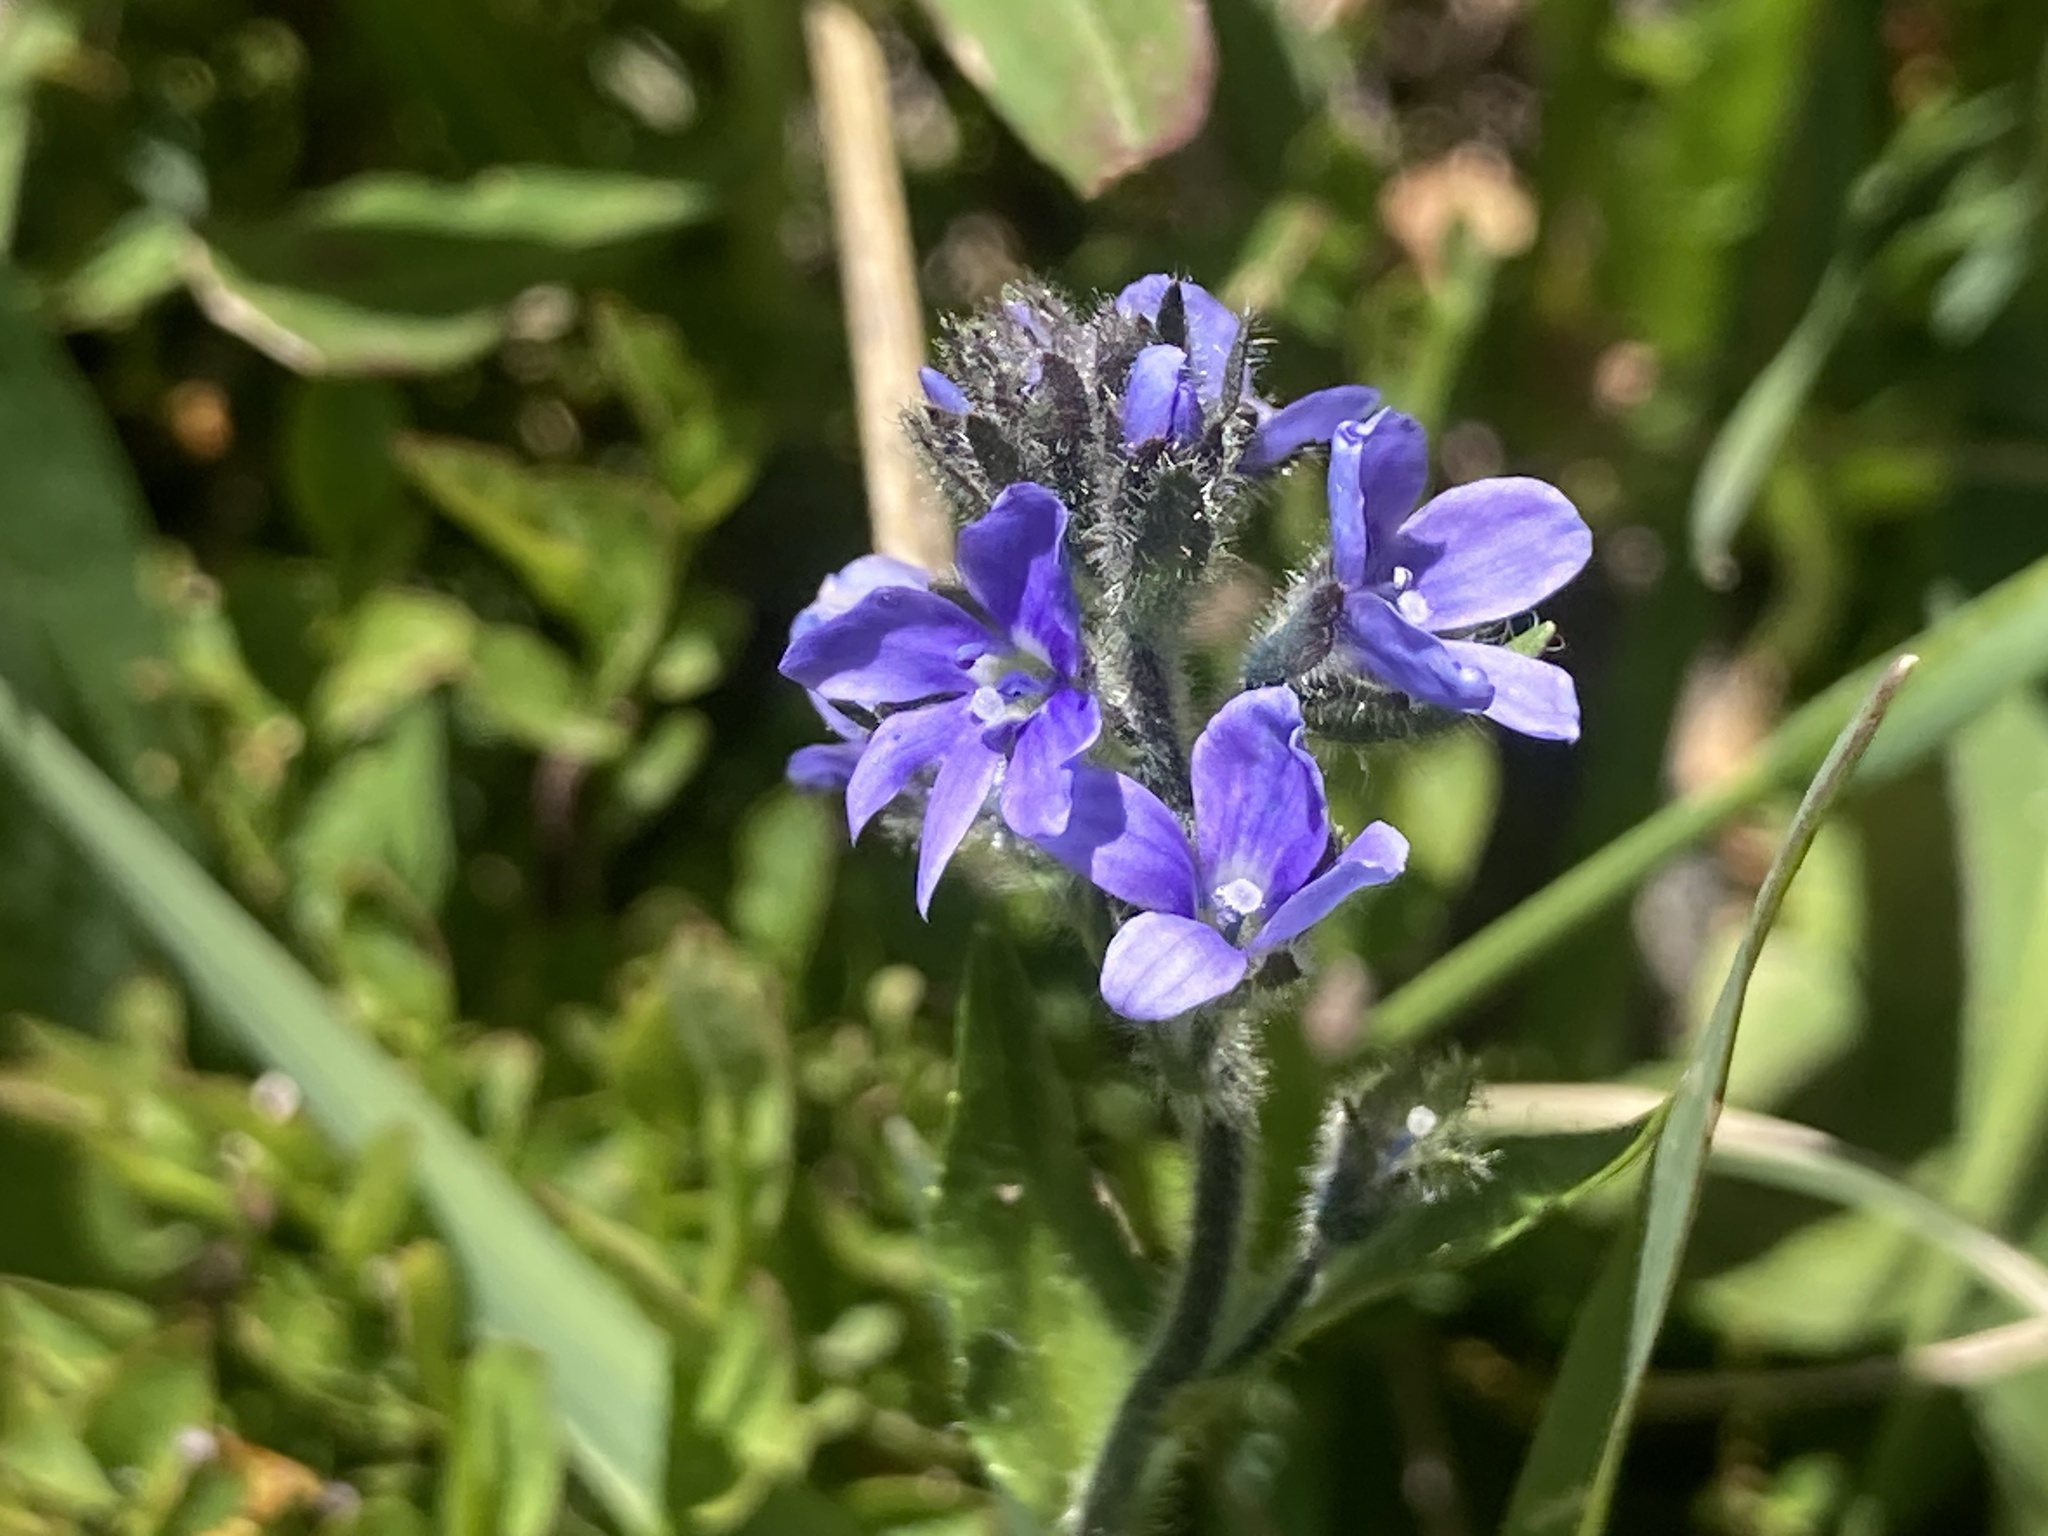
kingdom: Plantae
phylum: Tracheophyta
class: Magnoliopsida
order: Lamiales
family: Plantaginaceae
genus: Veronica
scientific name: Veronica wormskjoldii
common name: American alpine speedwell
